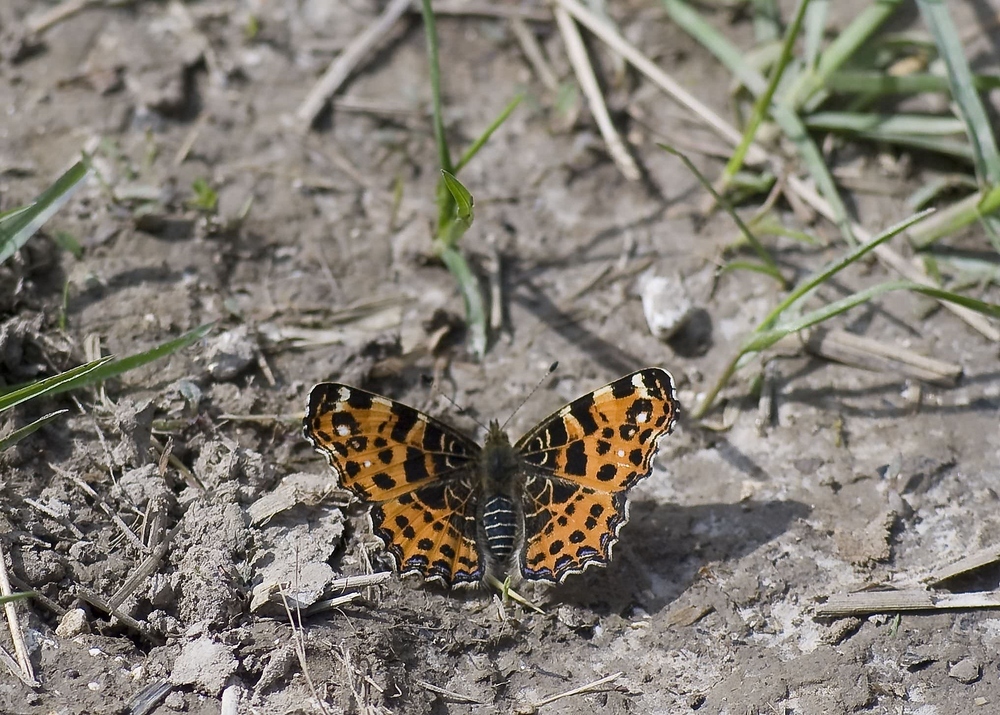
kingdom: Animalia
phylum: Arthropoda
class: Insecta
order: Lepidoptera
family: Nymphalidae
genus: Araschnia
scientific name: Araschnia levana
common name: Map butterfly
